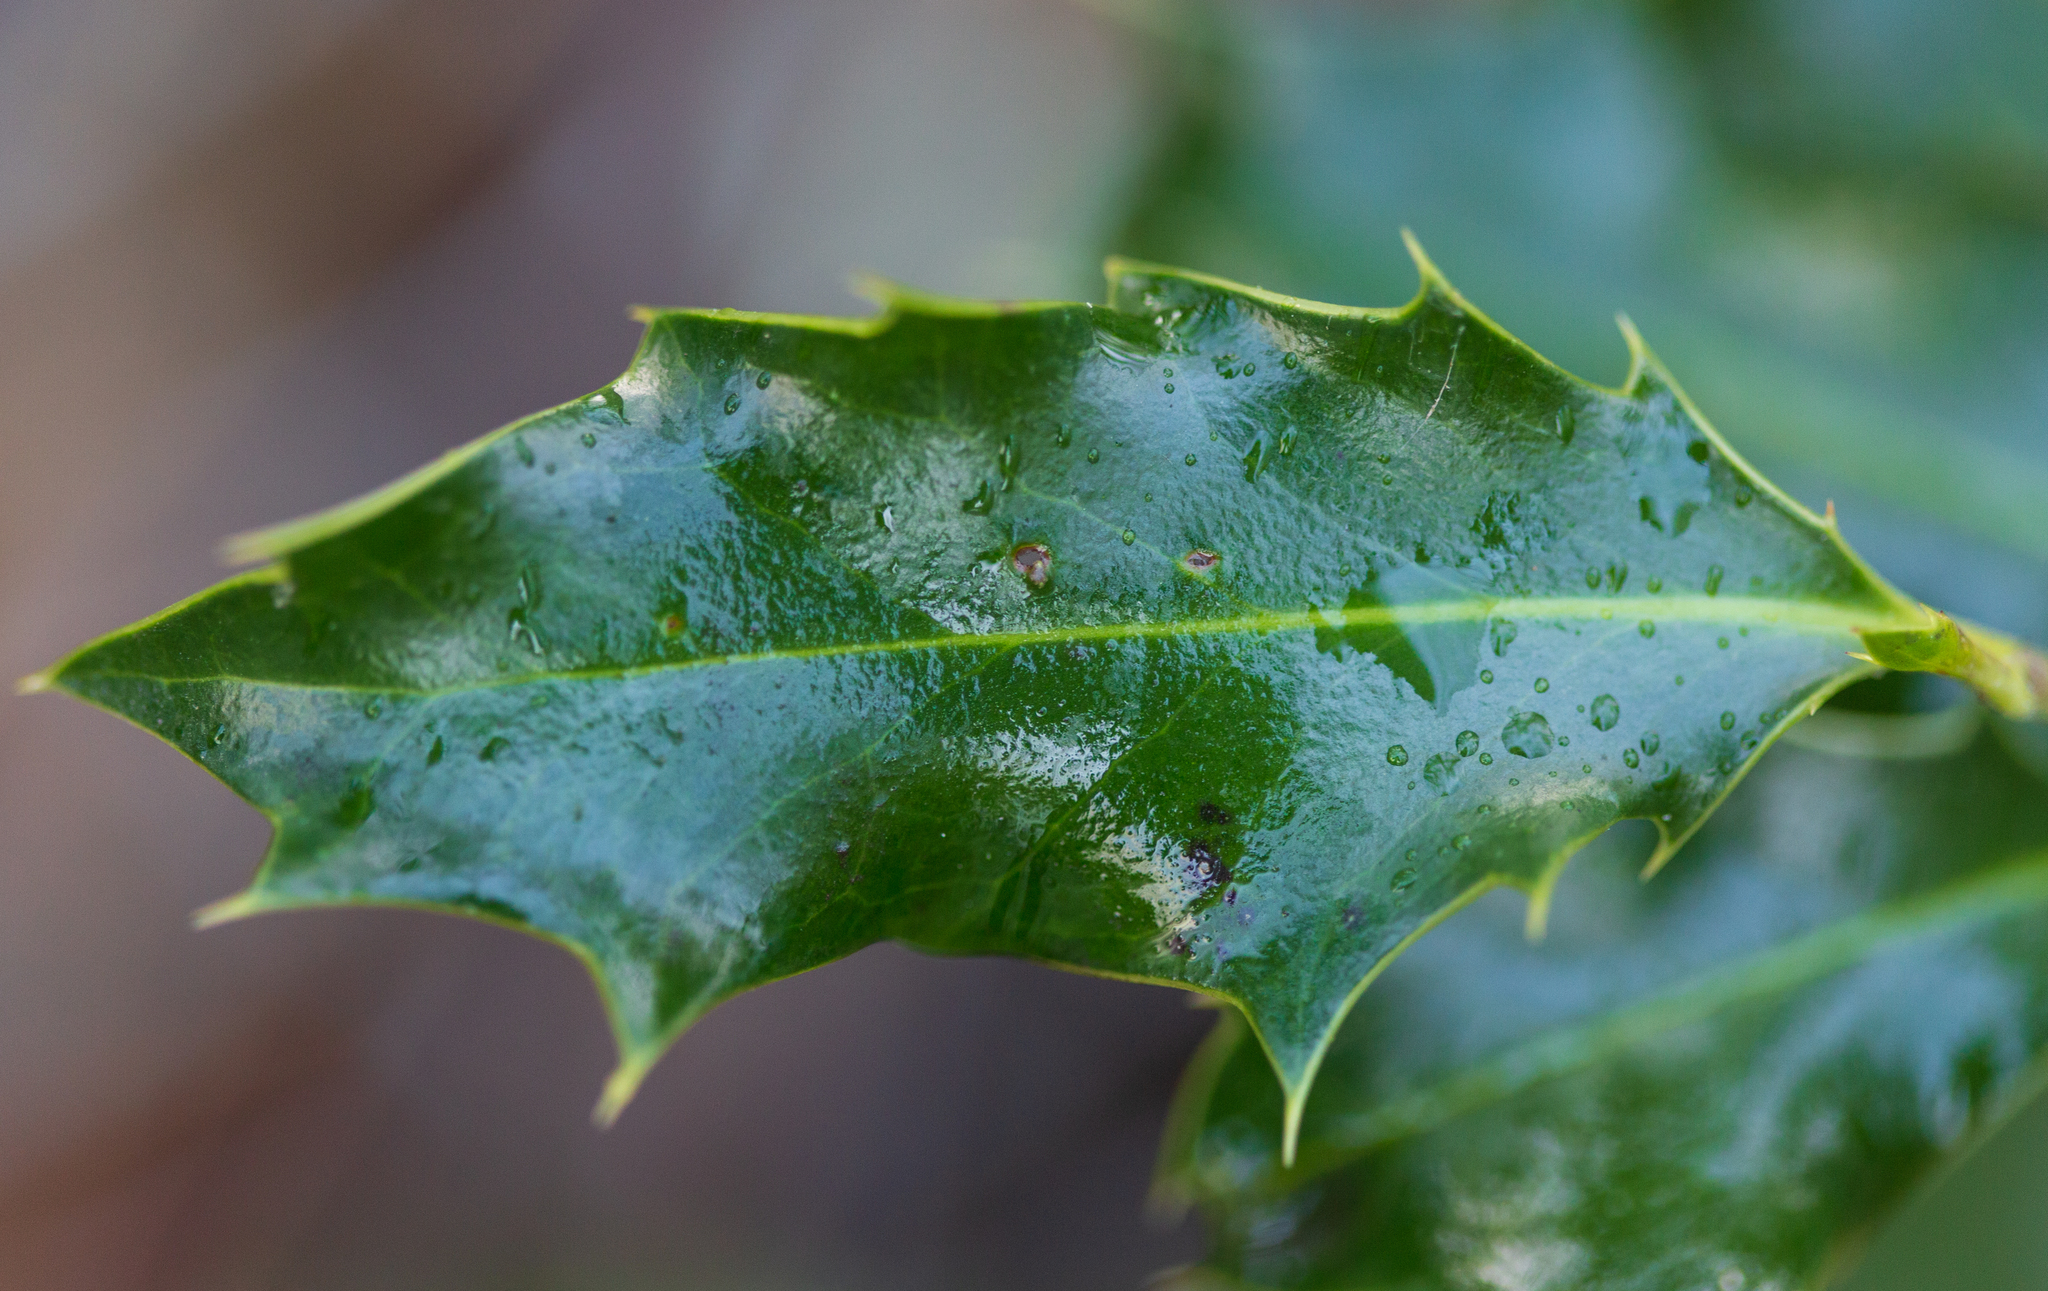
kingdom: Plantae
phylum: Tracheophyta
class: Magnoliopsida
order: Aquifoliales
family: Aquifoliaceae
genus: Ilex
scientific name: Ilex aquifolium
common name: English holly
